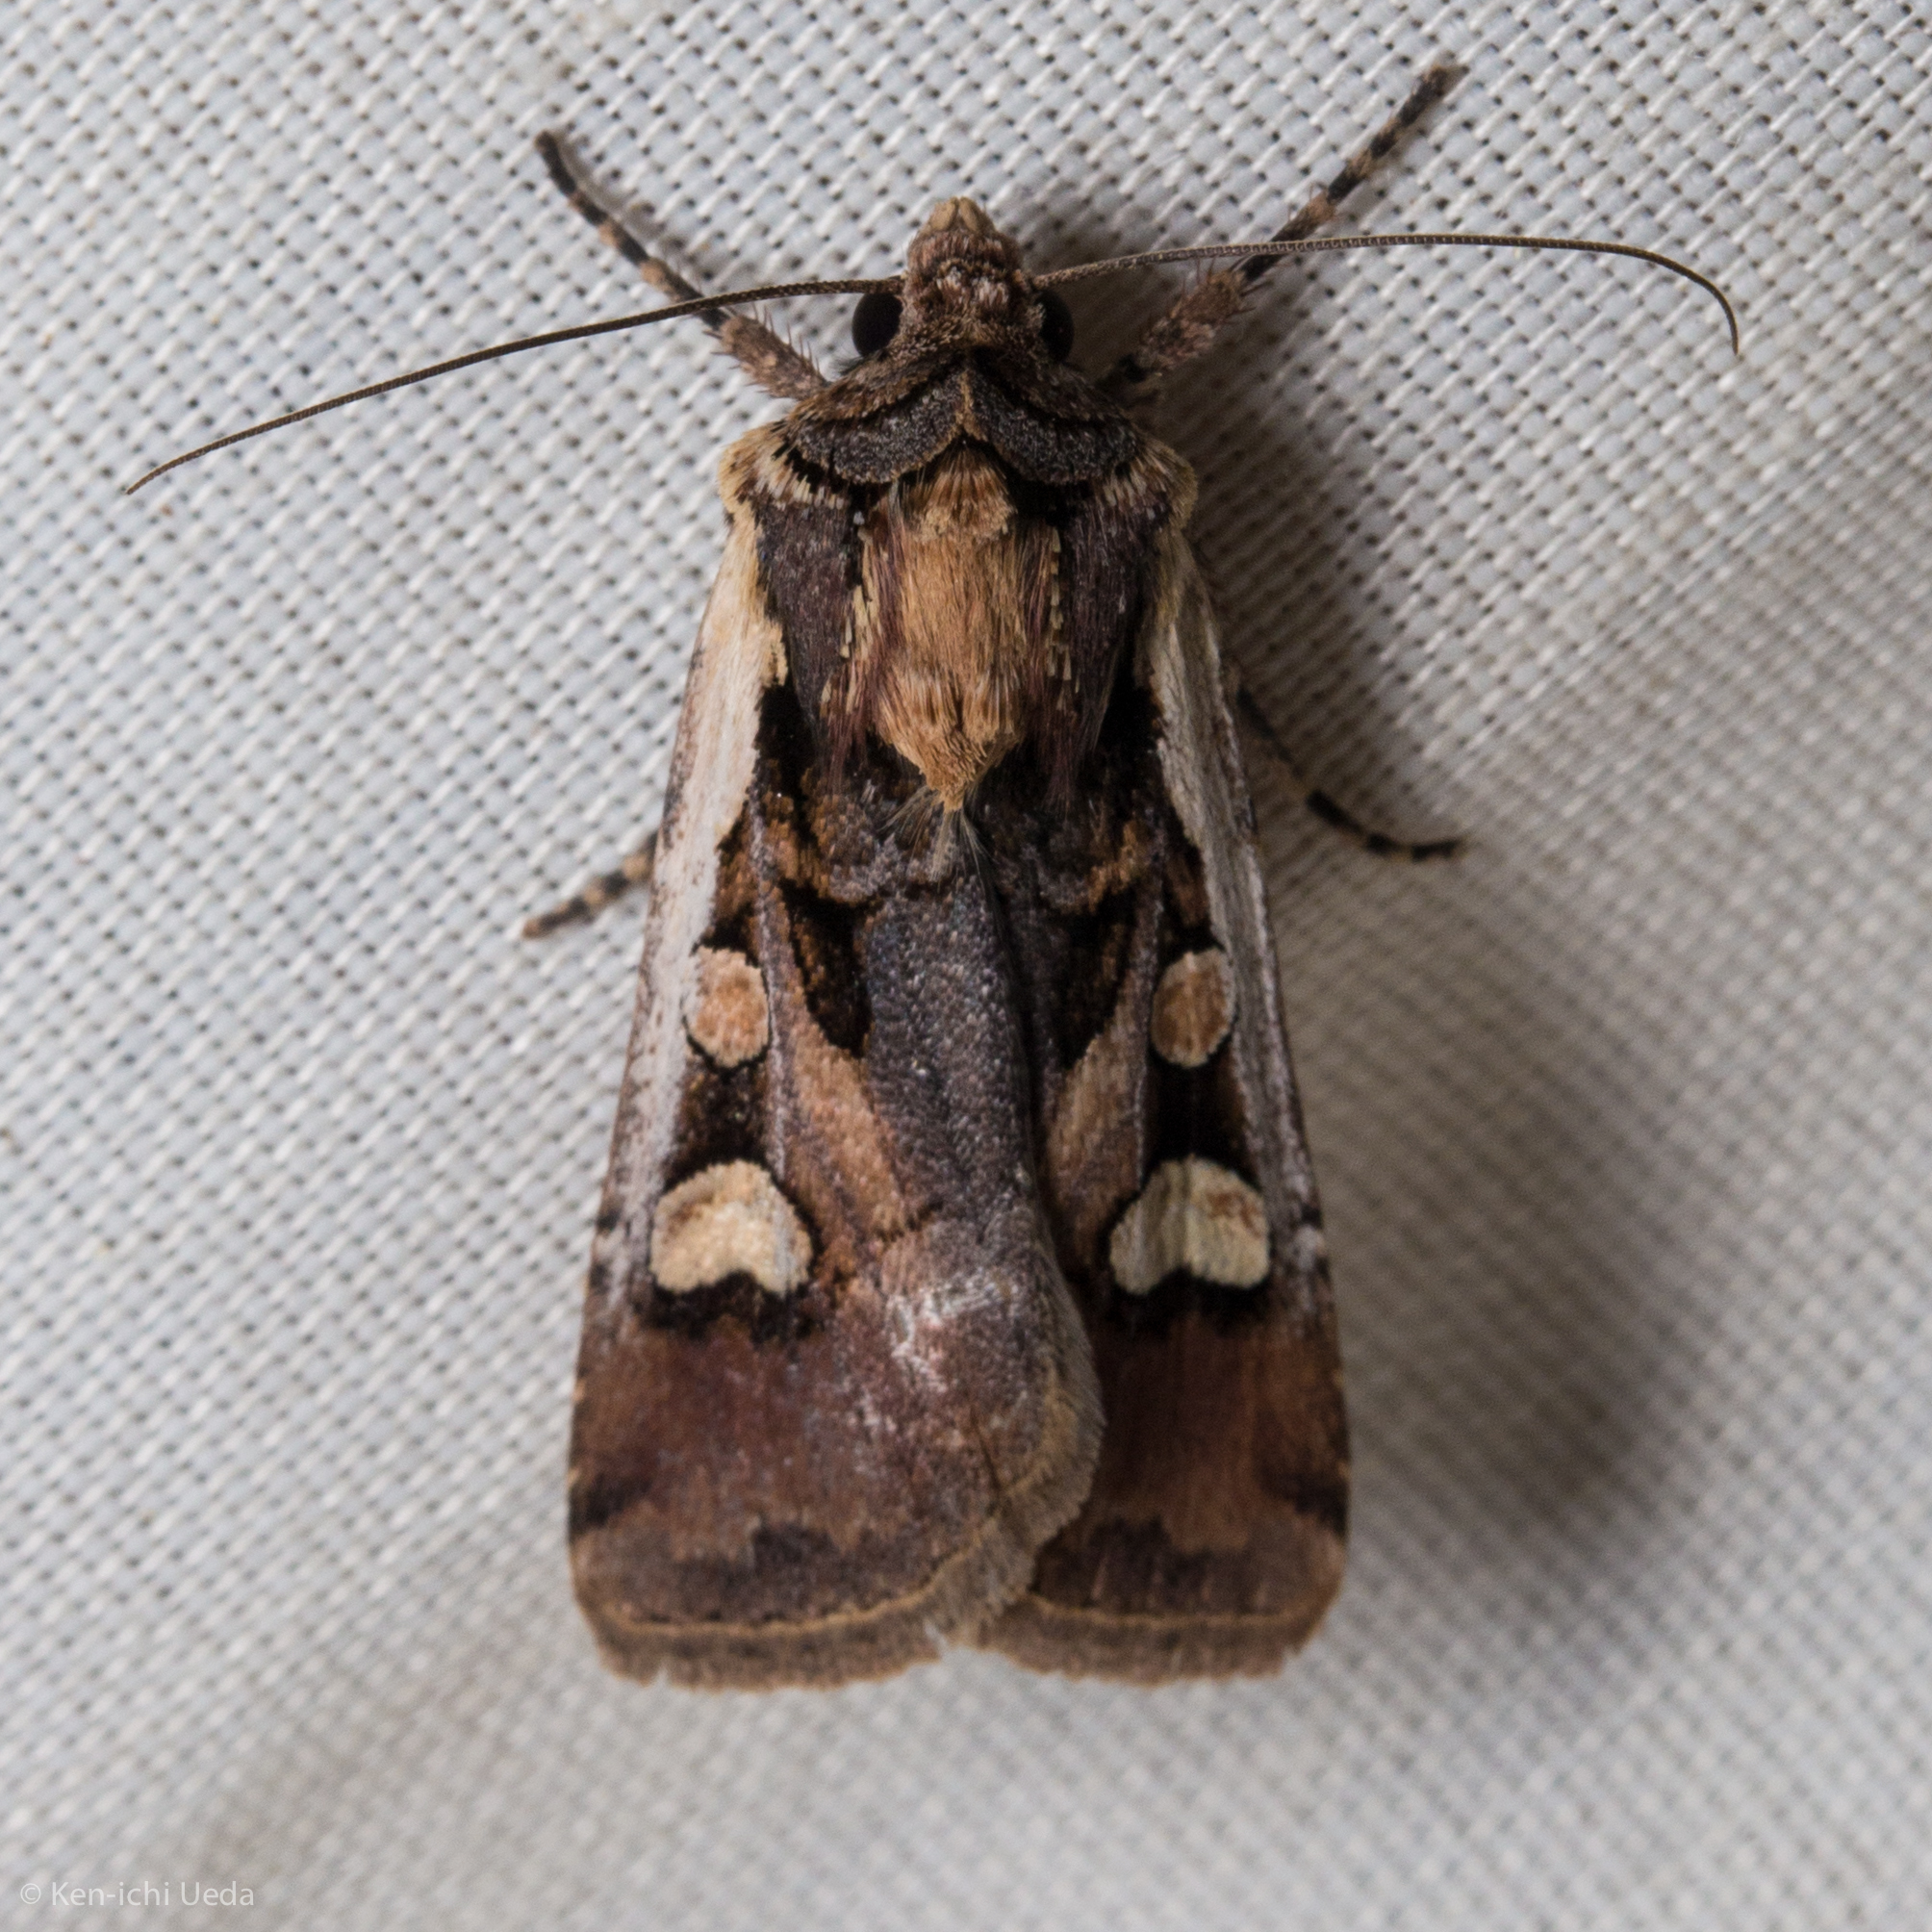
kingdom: Animalia
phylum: Arthropoda
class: Insecta
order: Lepidoptera
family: Noctuidae
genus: Euxoa
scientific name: Euxoa obeliscoides
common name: Obelisk dart moth
